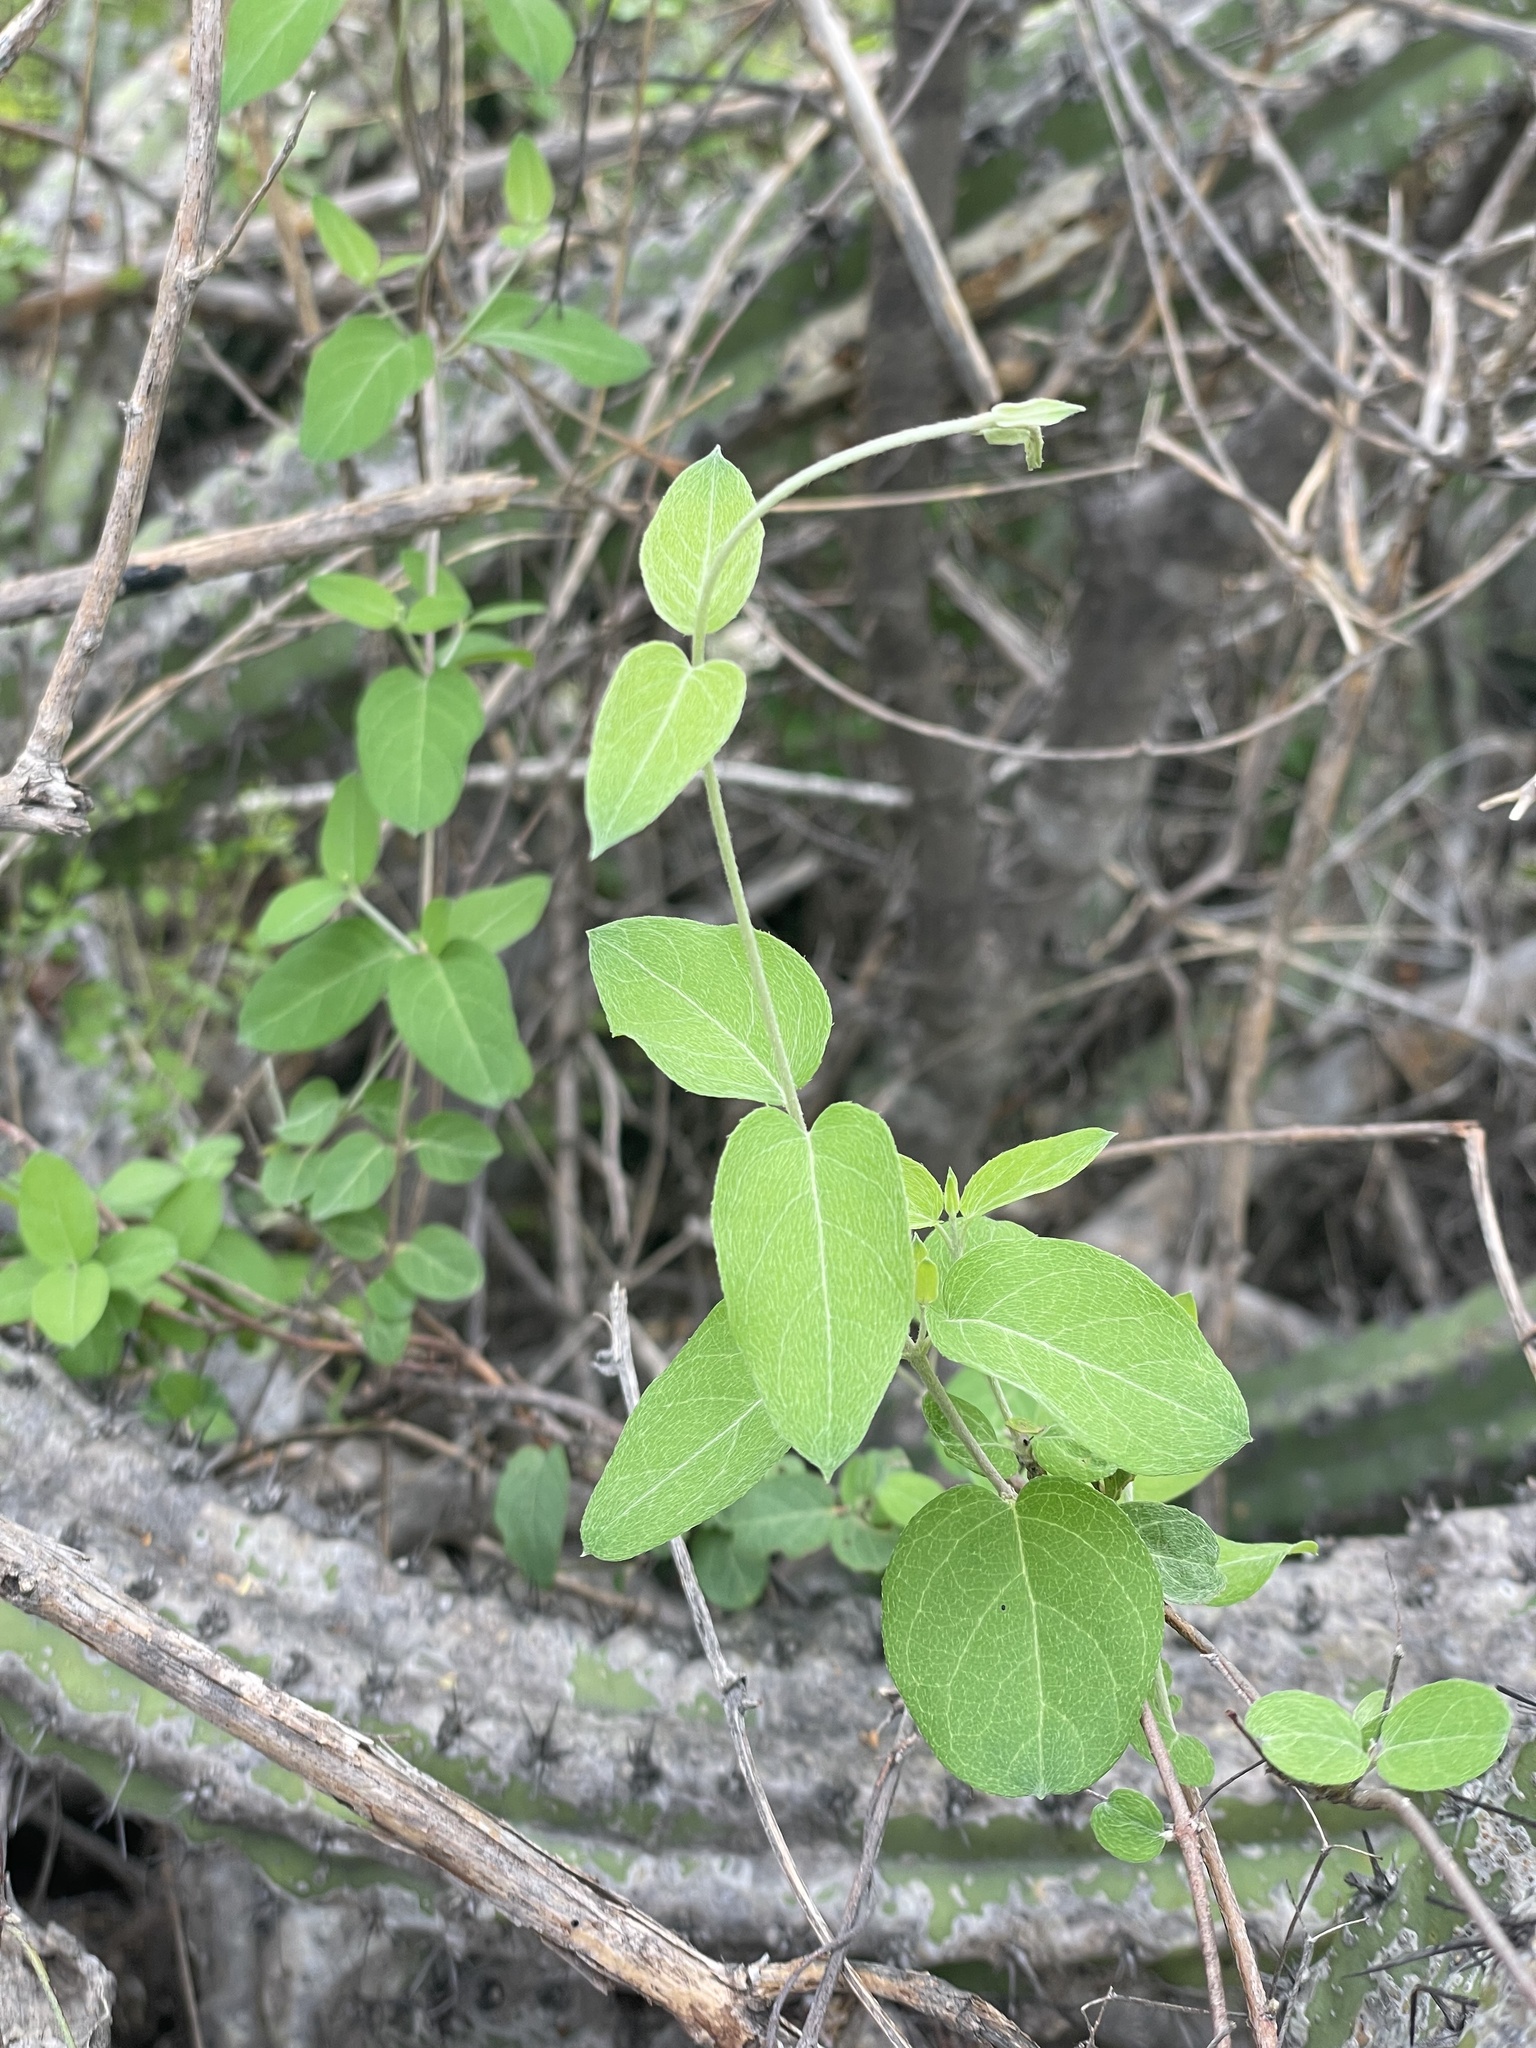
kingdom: Plantae
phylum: Tracheophyta
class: Magnoliopsida
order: Malpighiales
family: Malpighiaceae
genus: Cottsia
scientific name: Cottsia californica
